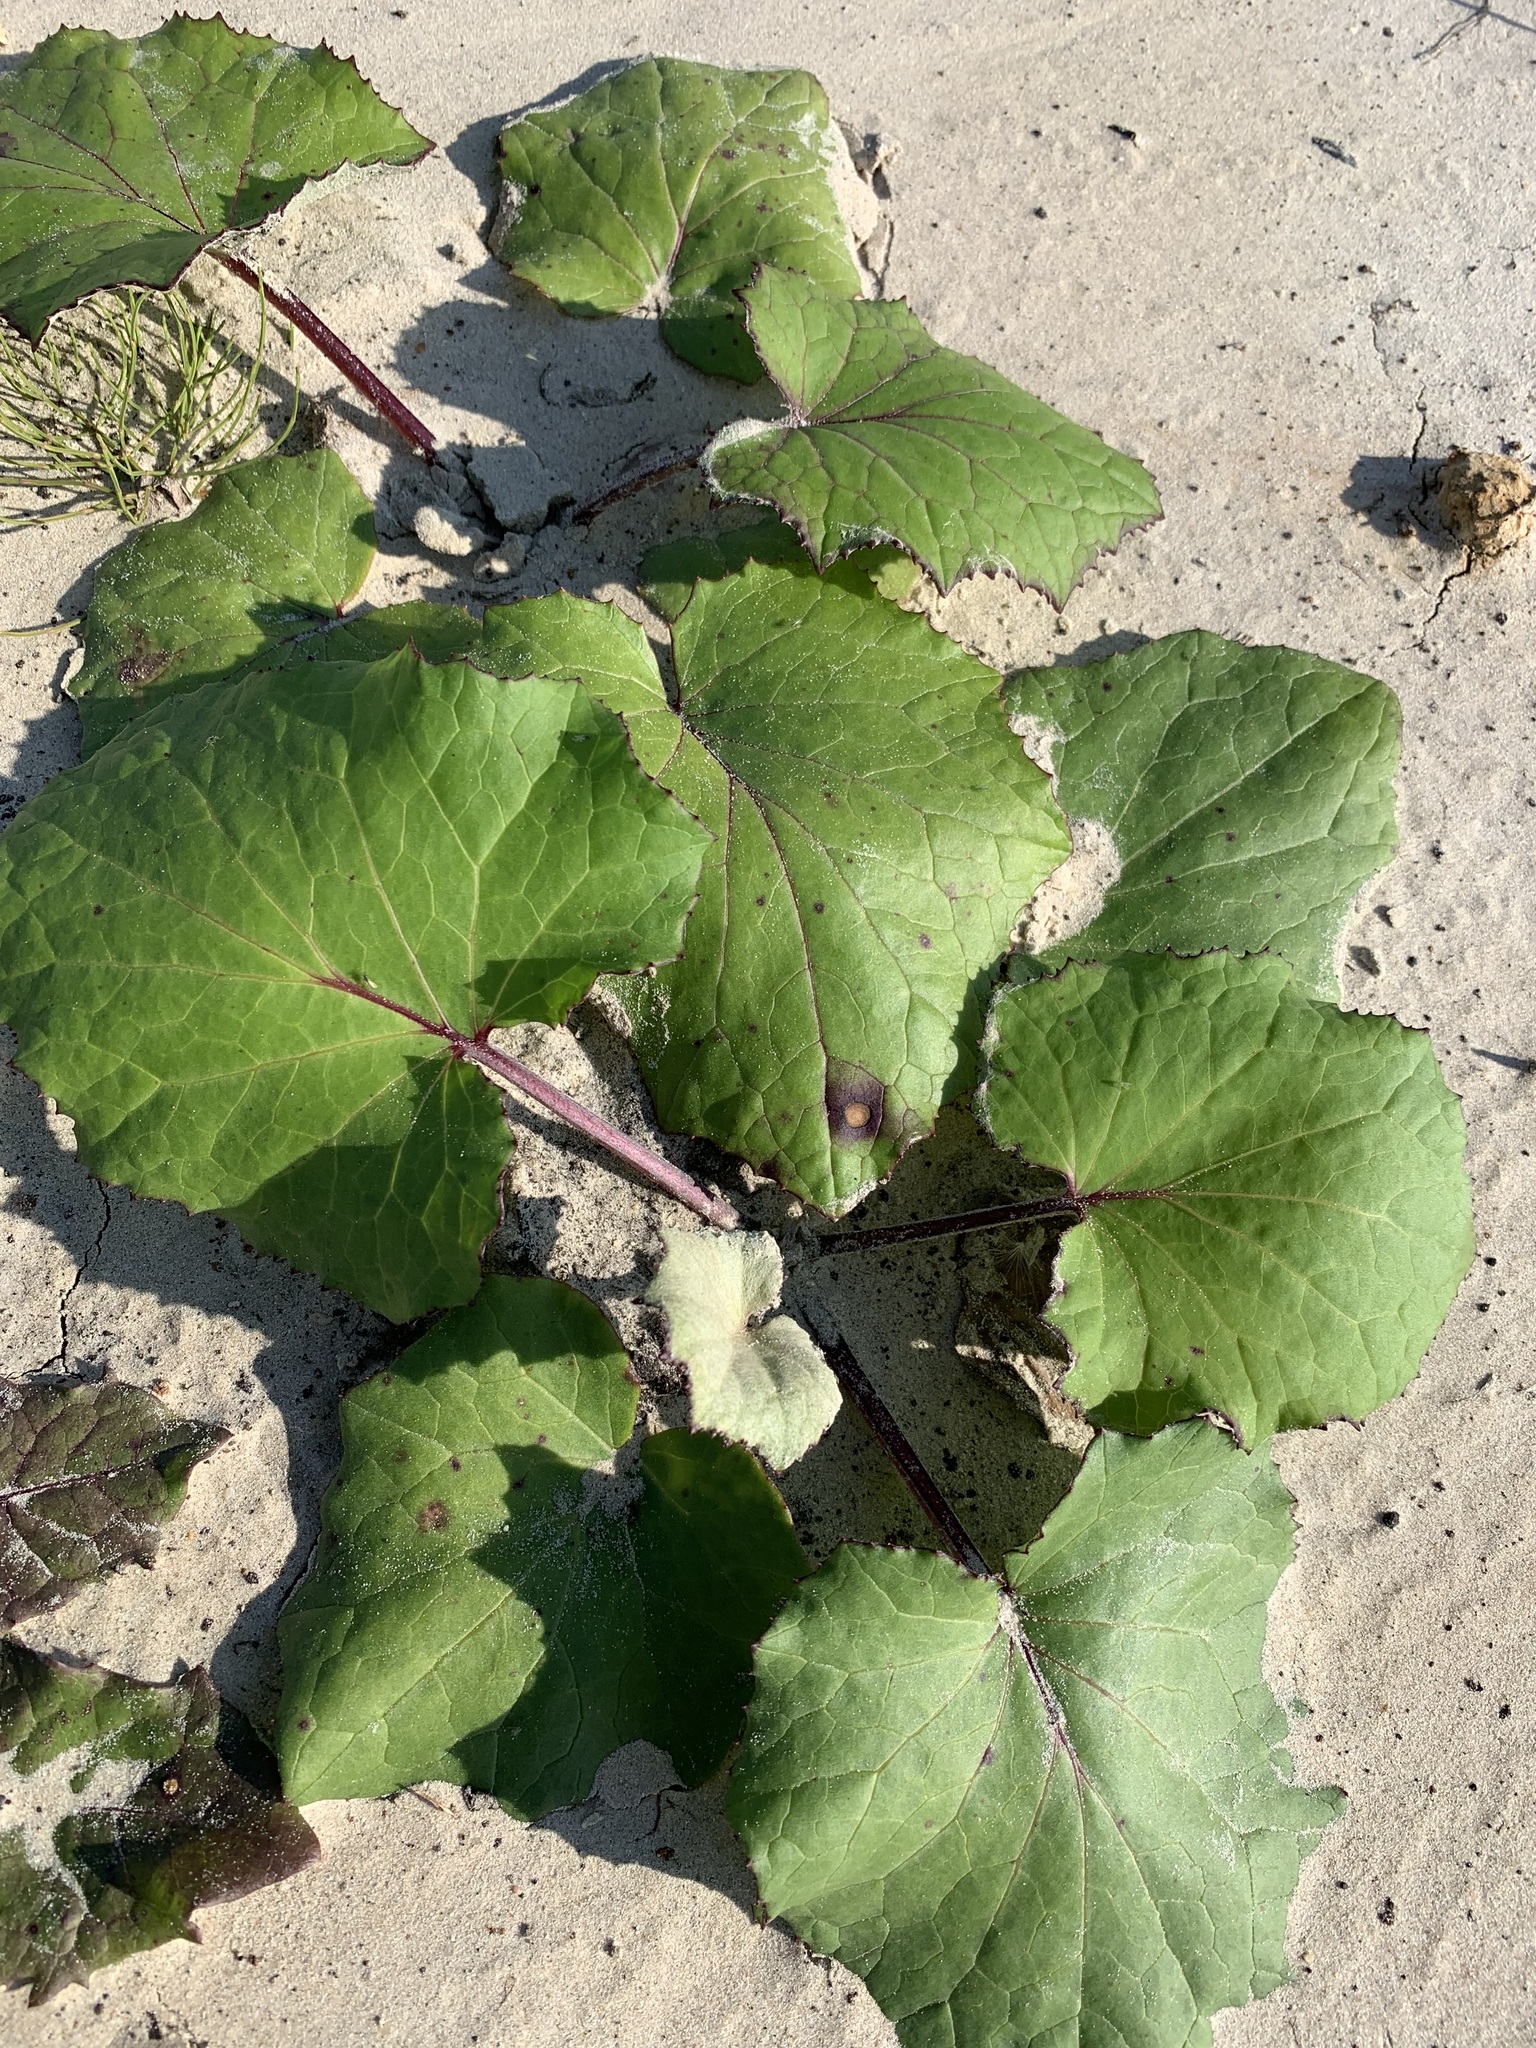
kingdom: Plantae
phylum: Tracheophyta
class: Magnoliopsida
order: Asterales
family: Asteraceae
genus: Tussilago
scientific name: Tussilago farfara
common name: Coltsfoot
